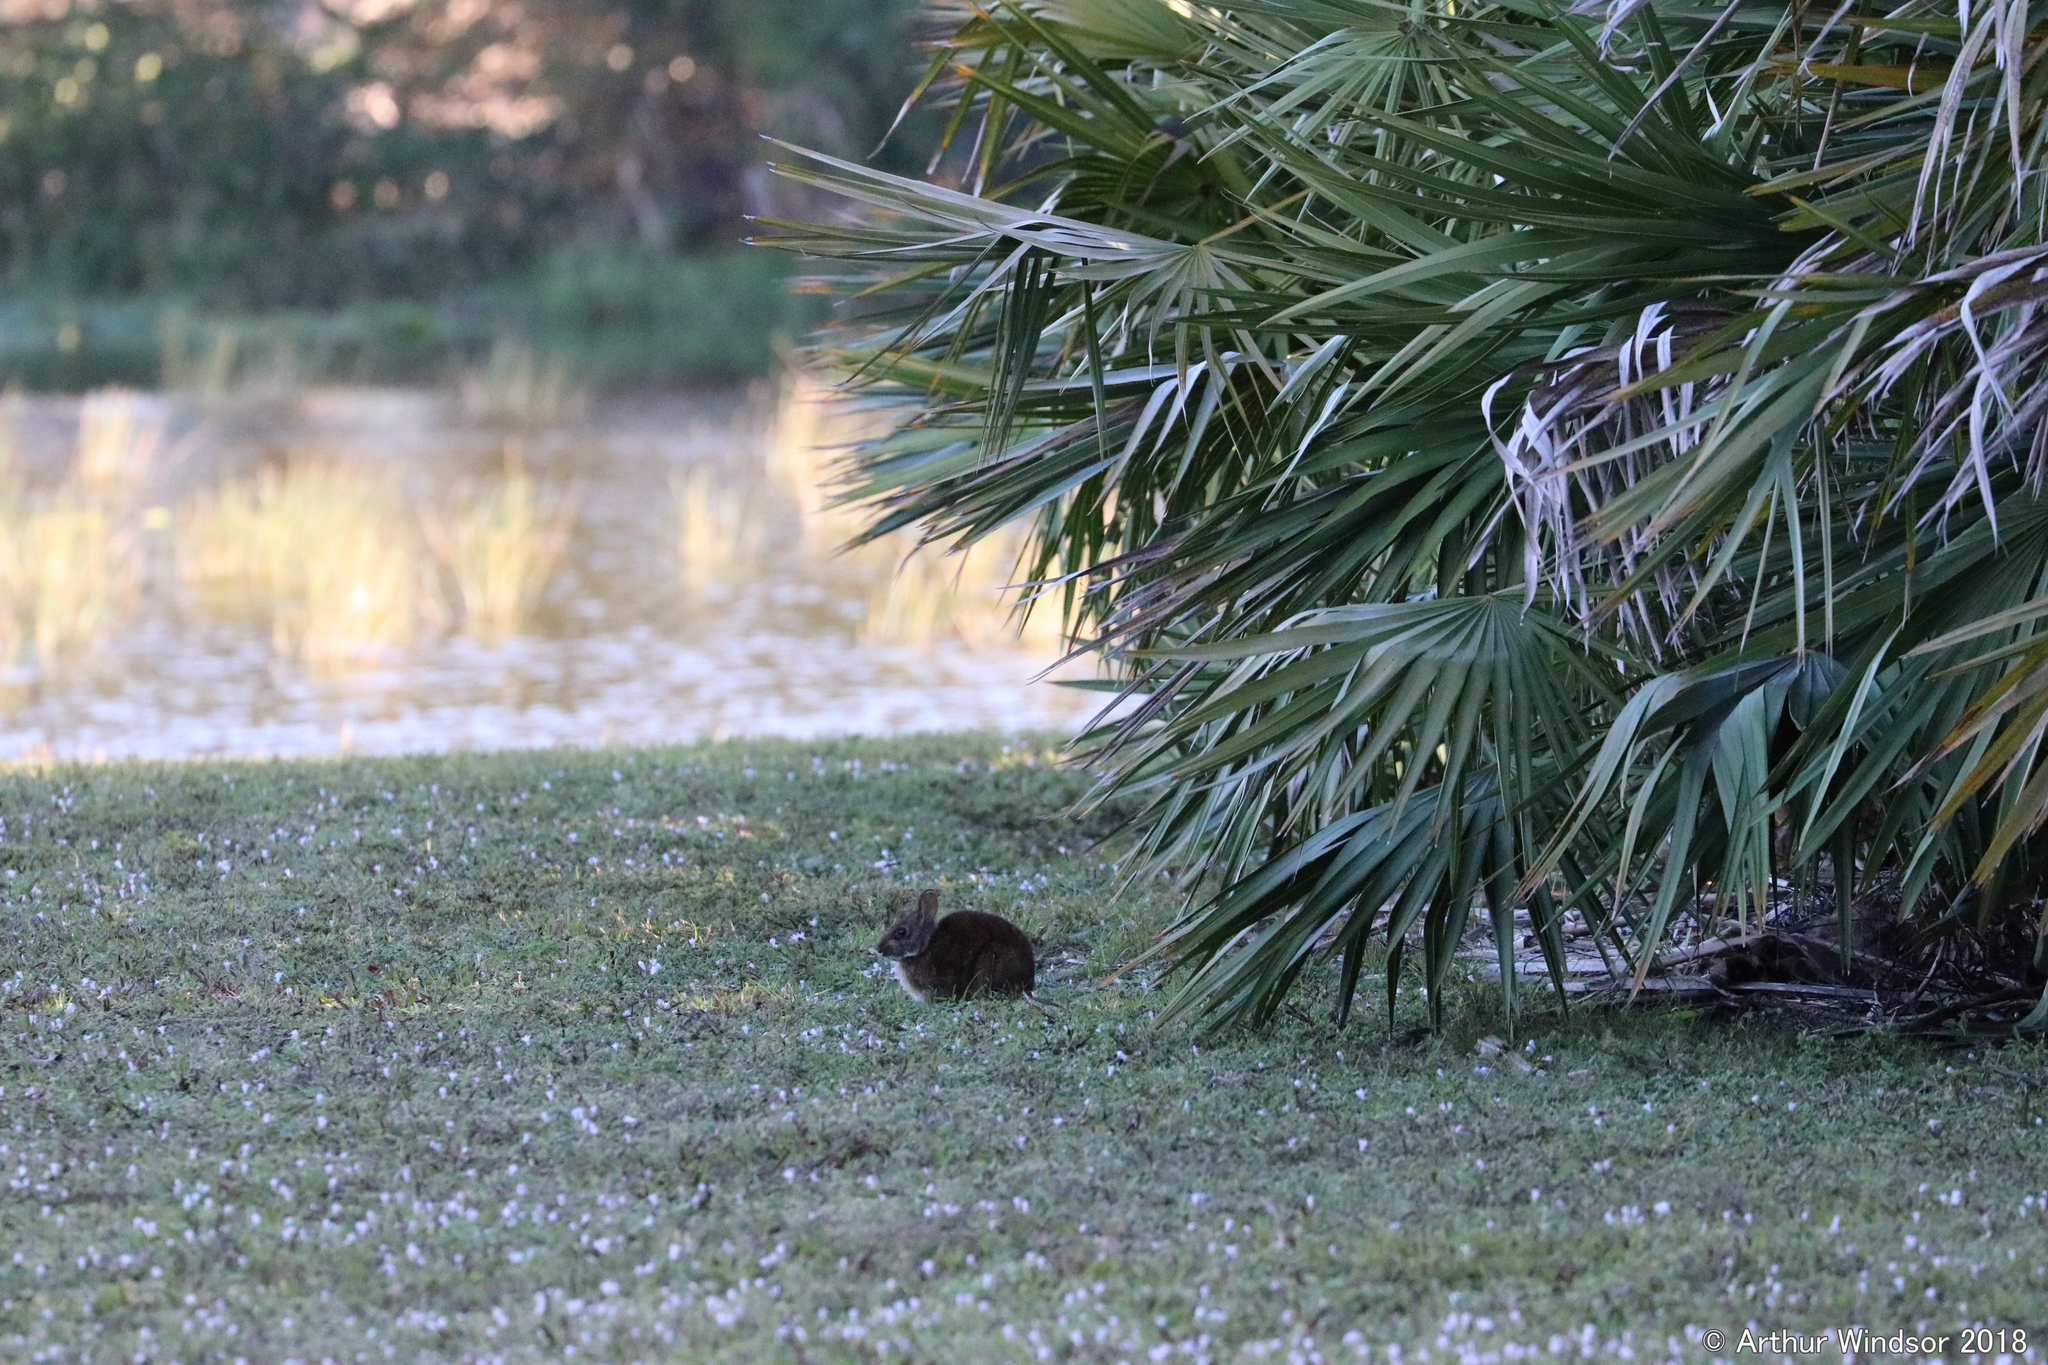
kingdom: Animalia
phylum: Chordata
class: Mammalia
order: Lagomorpha
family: Leporidae
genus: Sylvilagus
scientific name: Sylvilagus palustris
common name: Marsh rabbit
